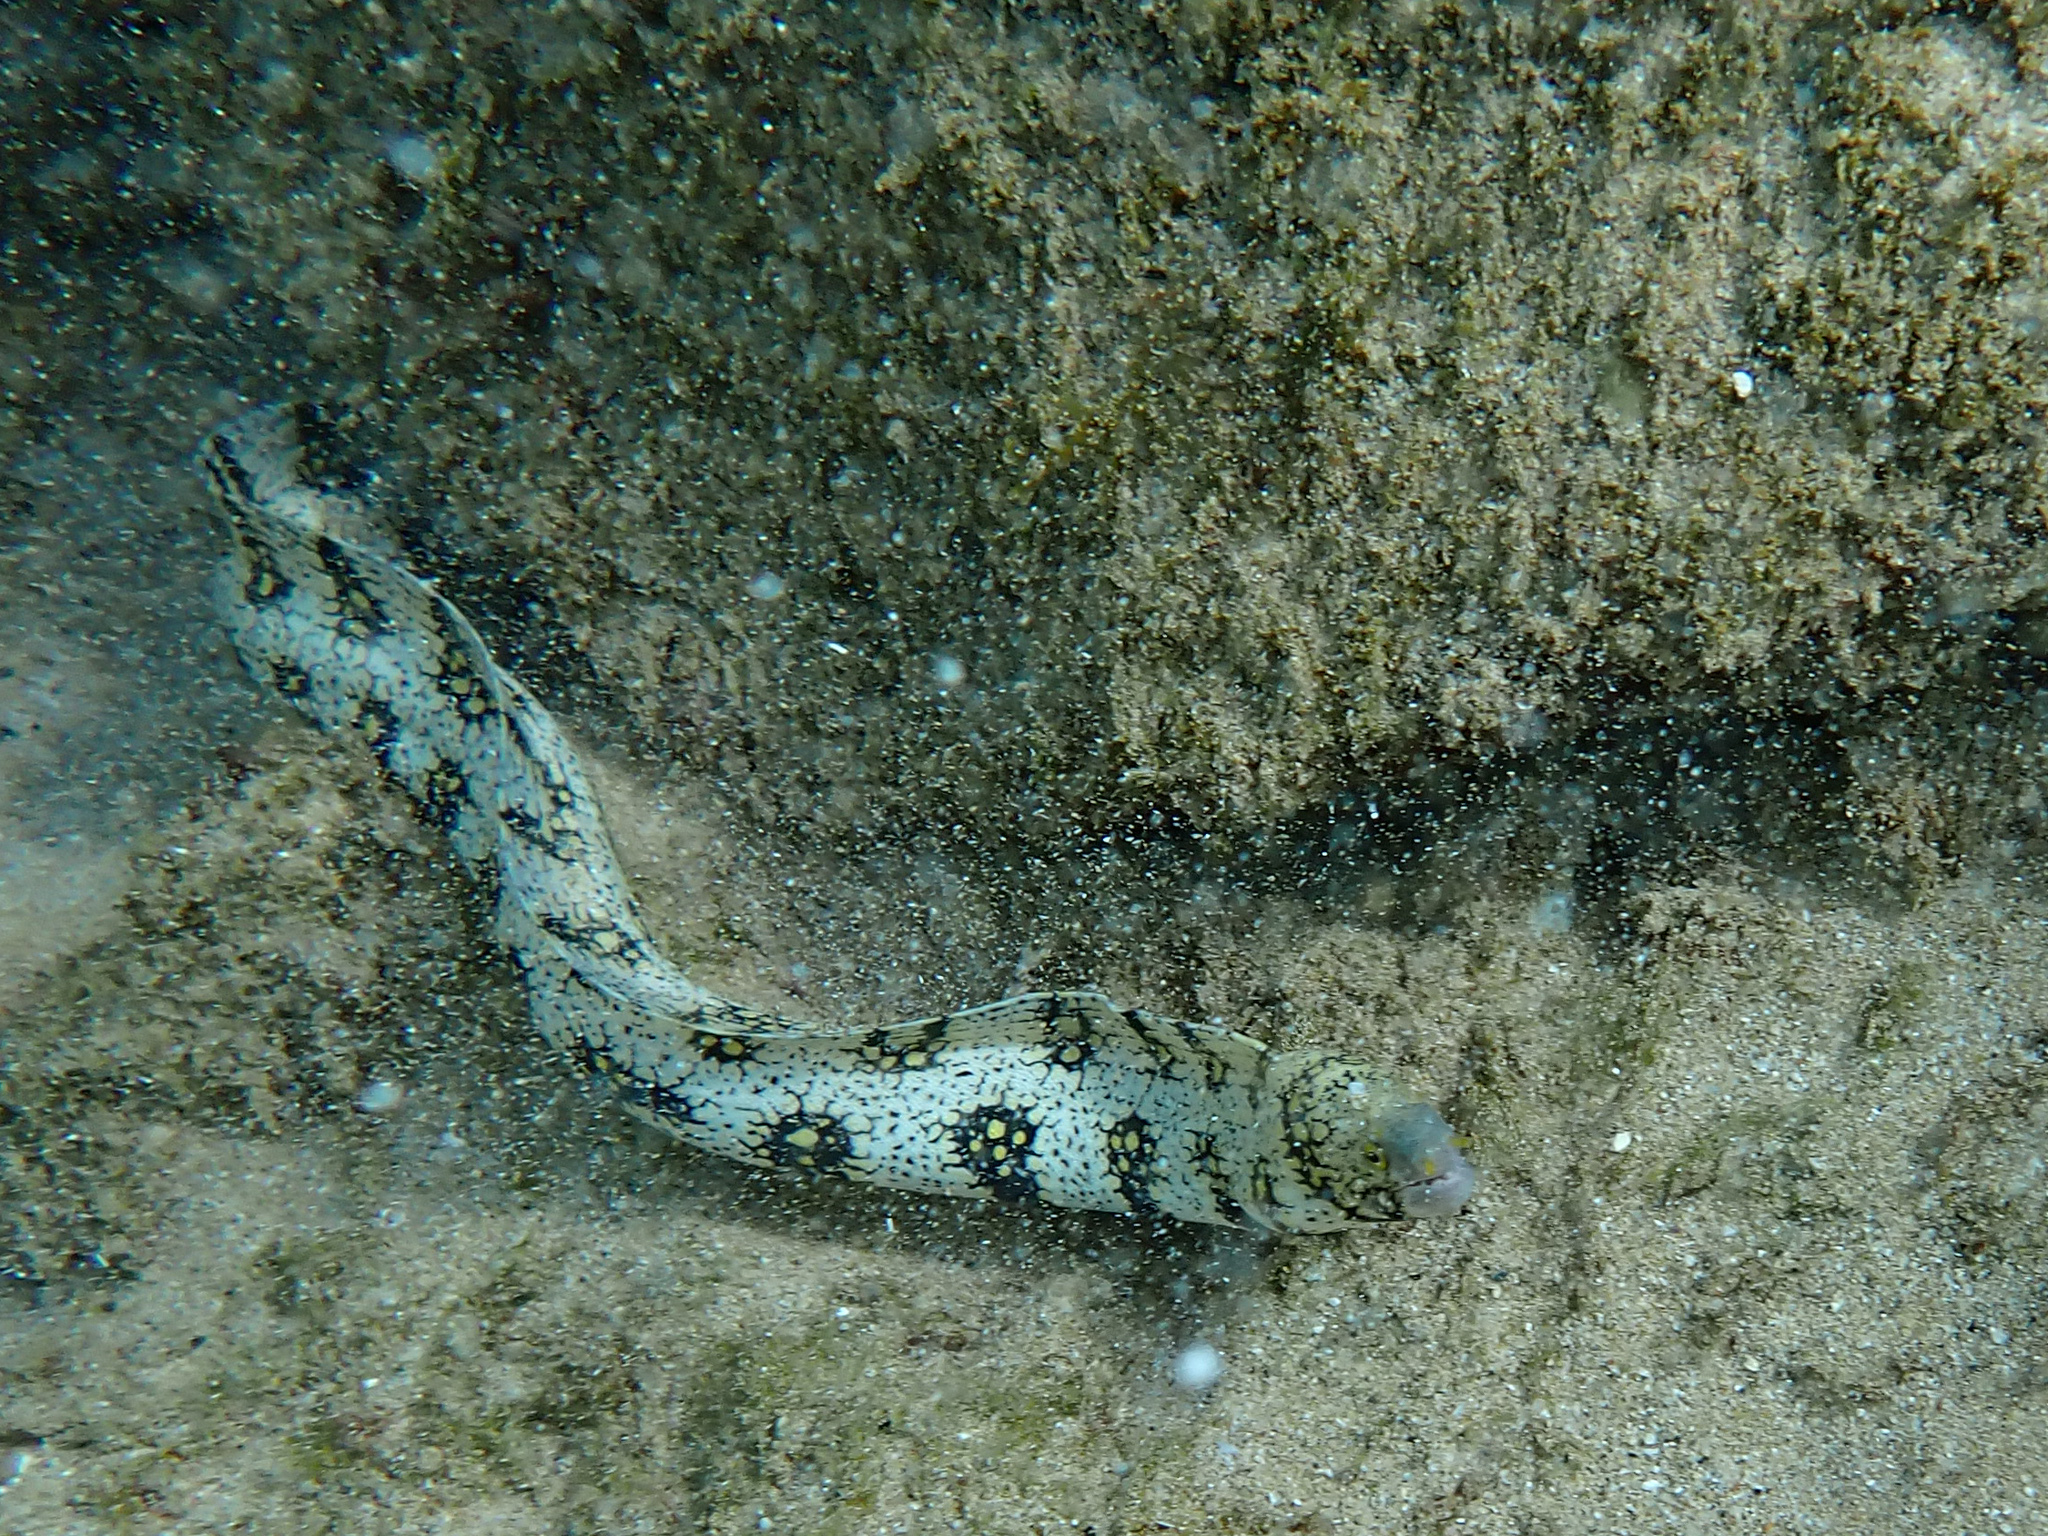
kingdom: Animalia
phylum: Chordata
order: Anguilliformes
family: Muraenidae
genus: Echidna
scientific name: Echidna nebulosa
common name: Snowflake moray
